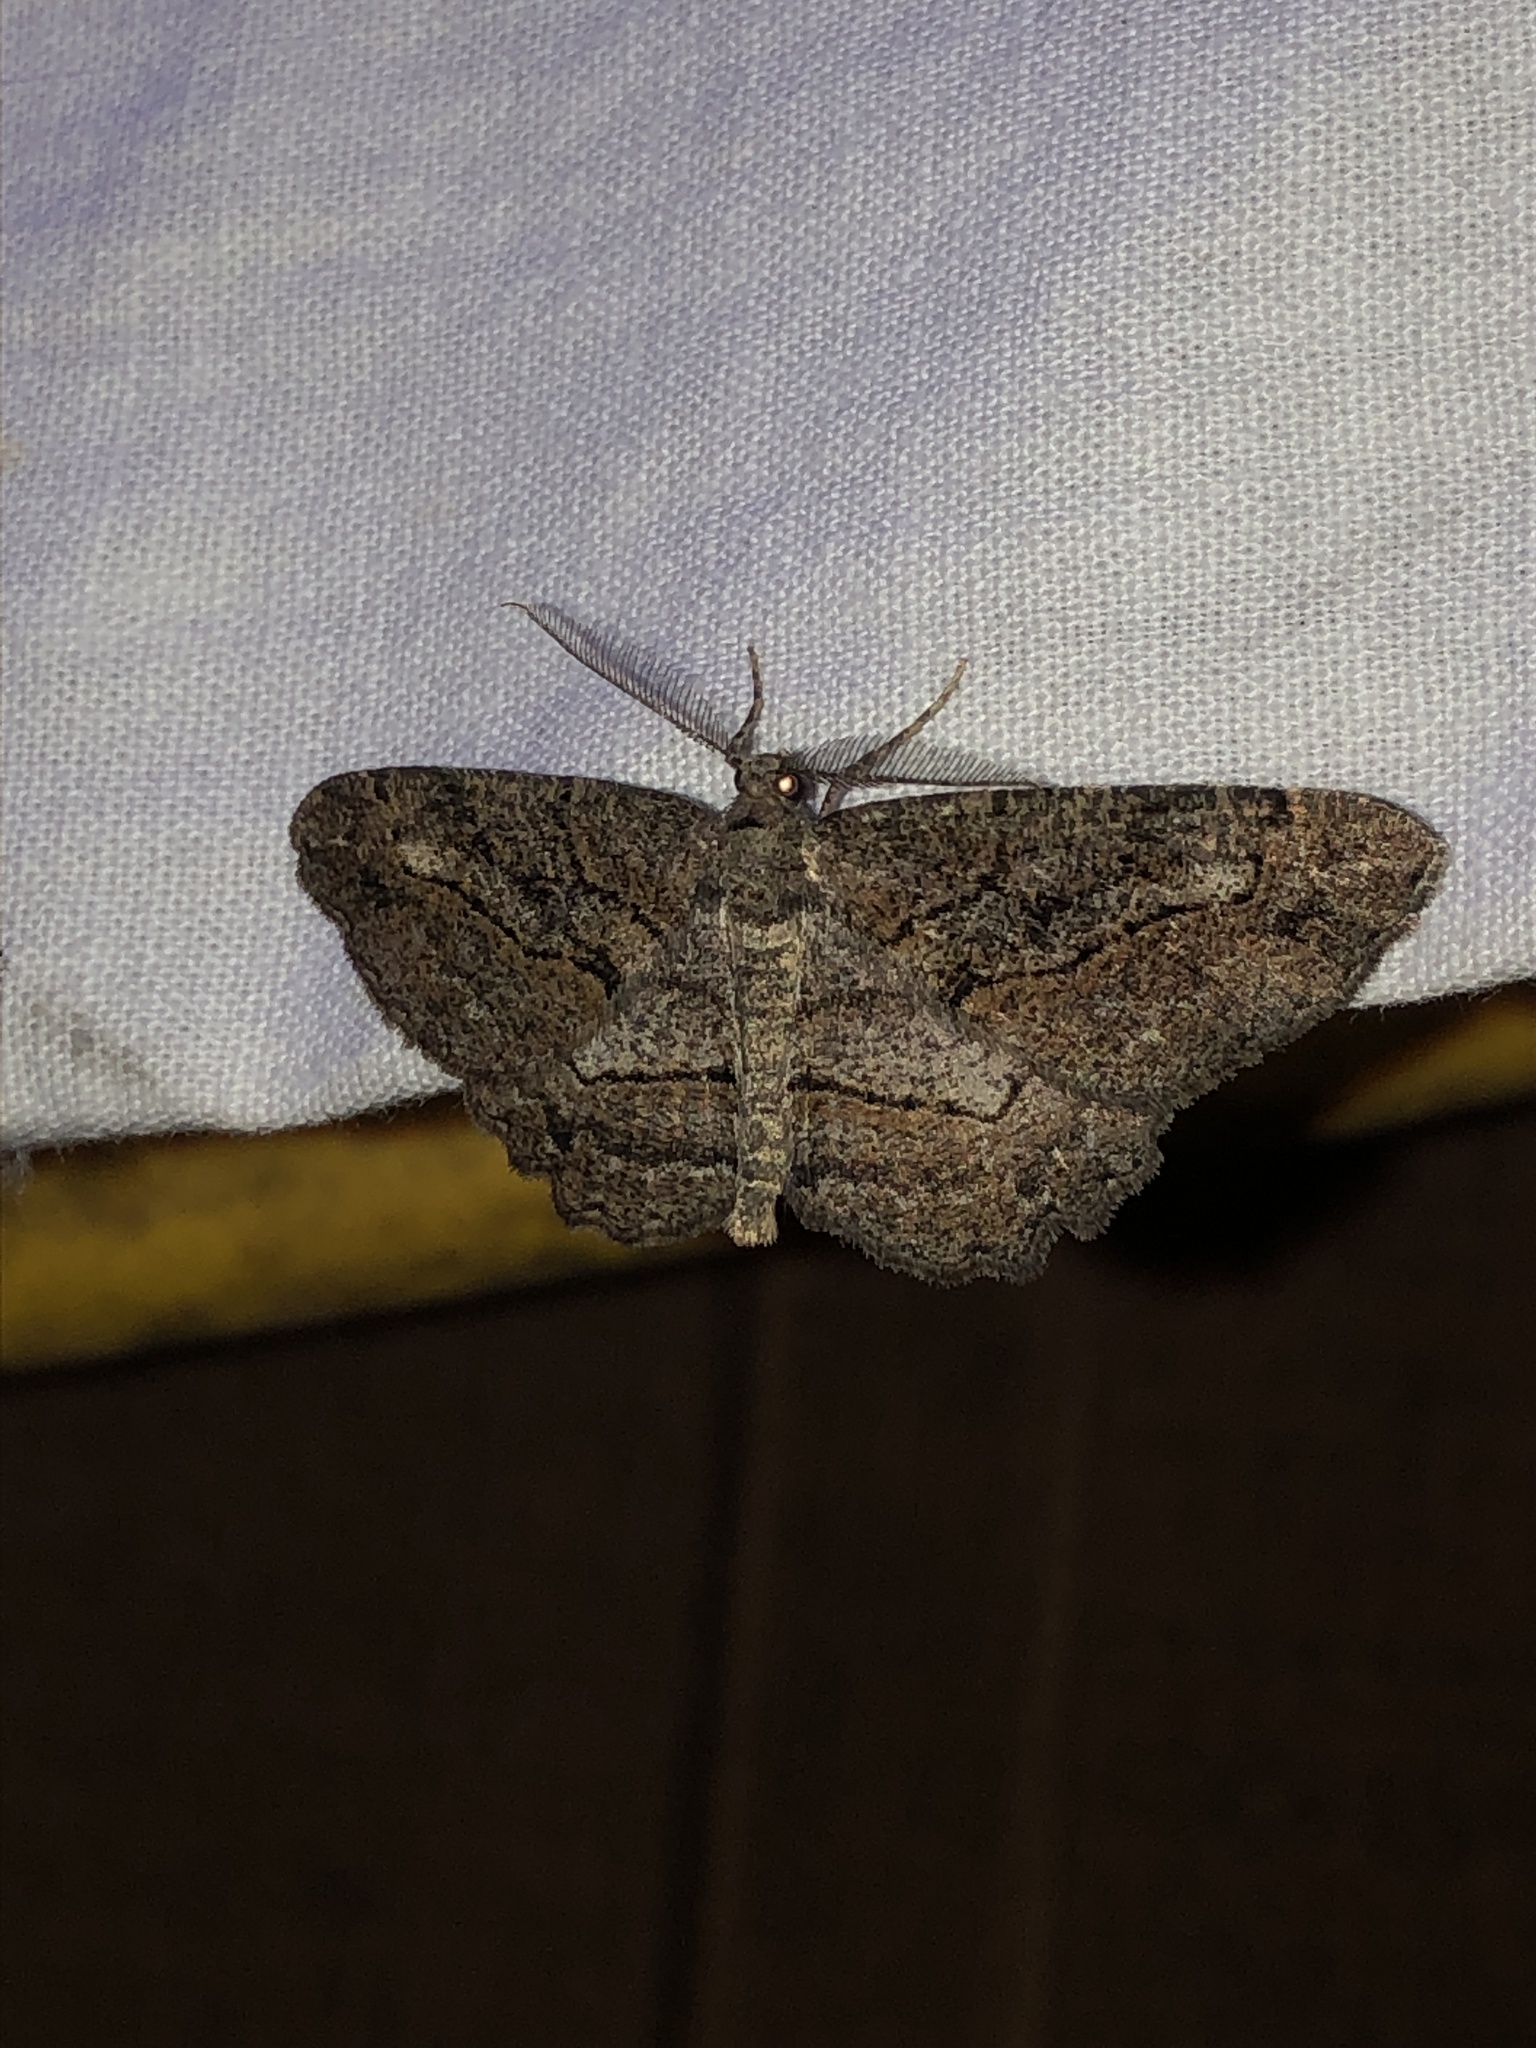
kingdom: Animalia
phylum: Arthropoda
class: Insecta
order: Lepidoptera
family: Geometridae
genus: Neoalcis
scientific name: Neoalcis californiaria
